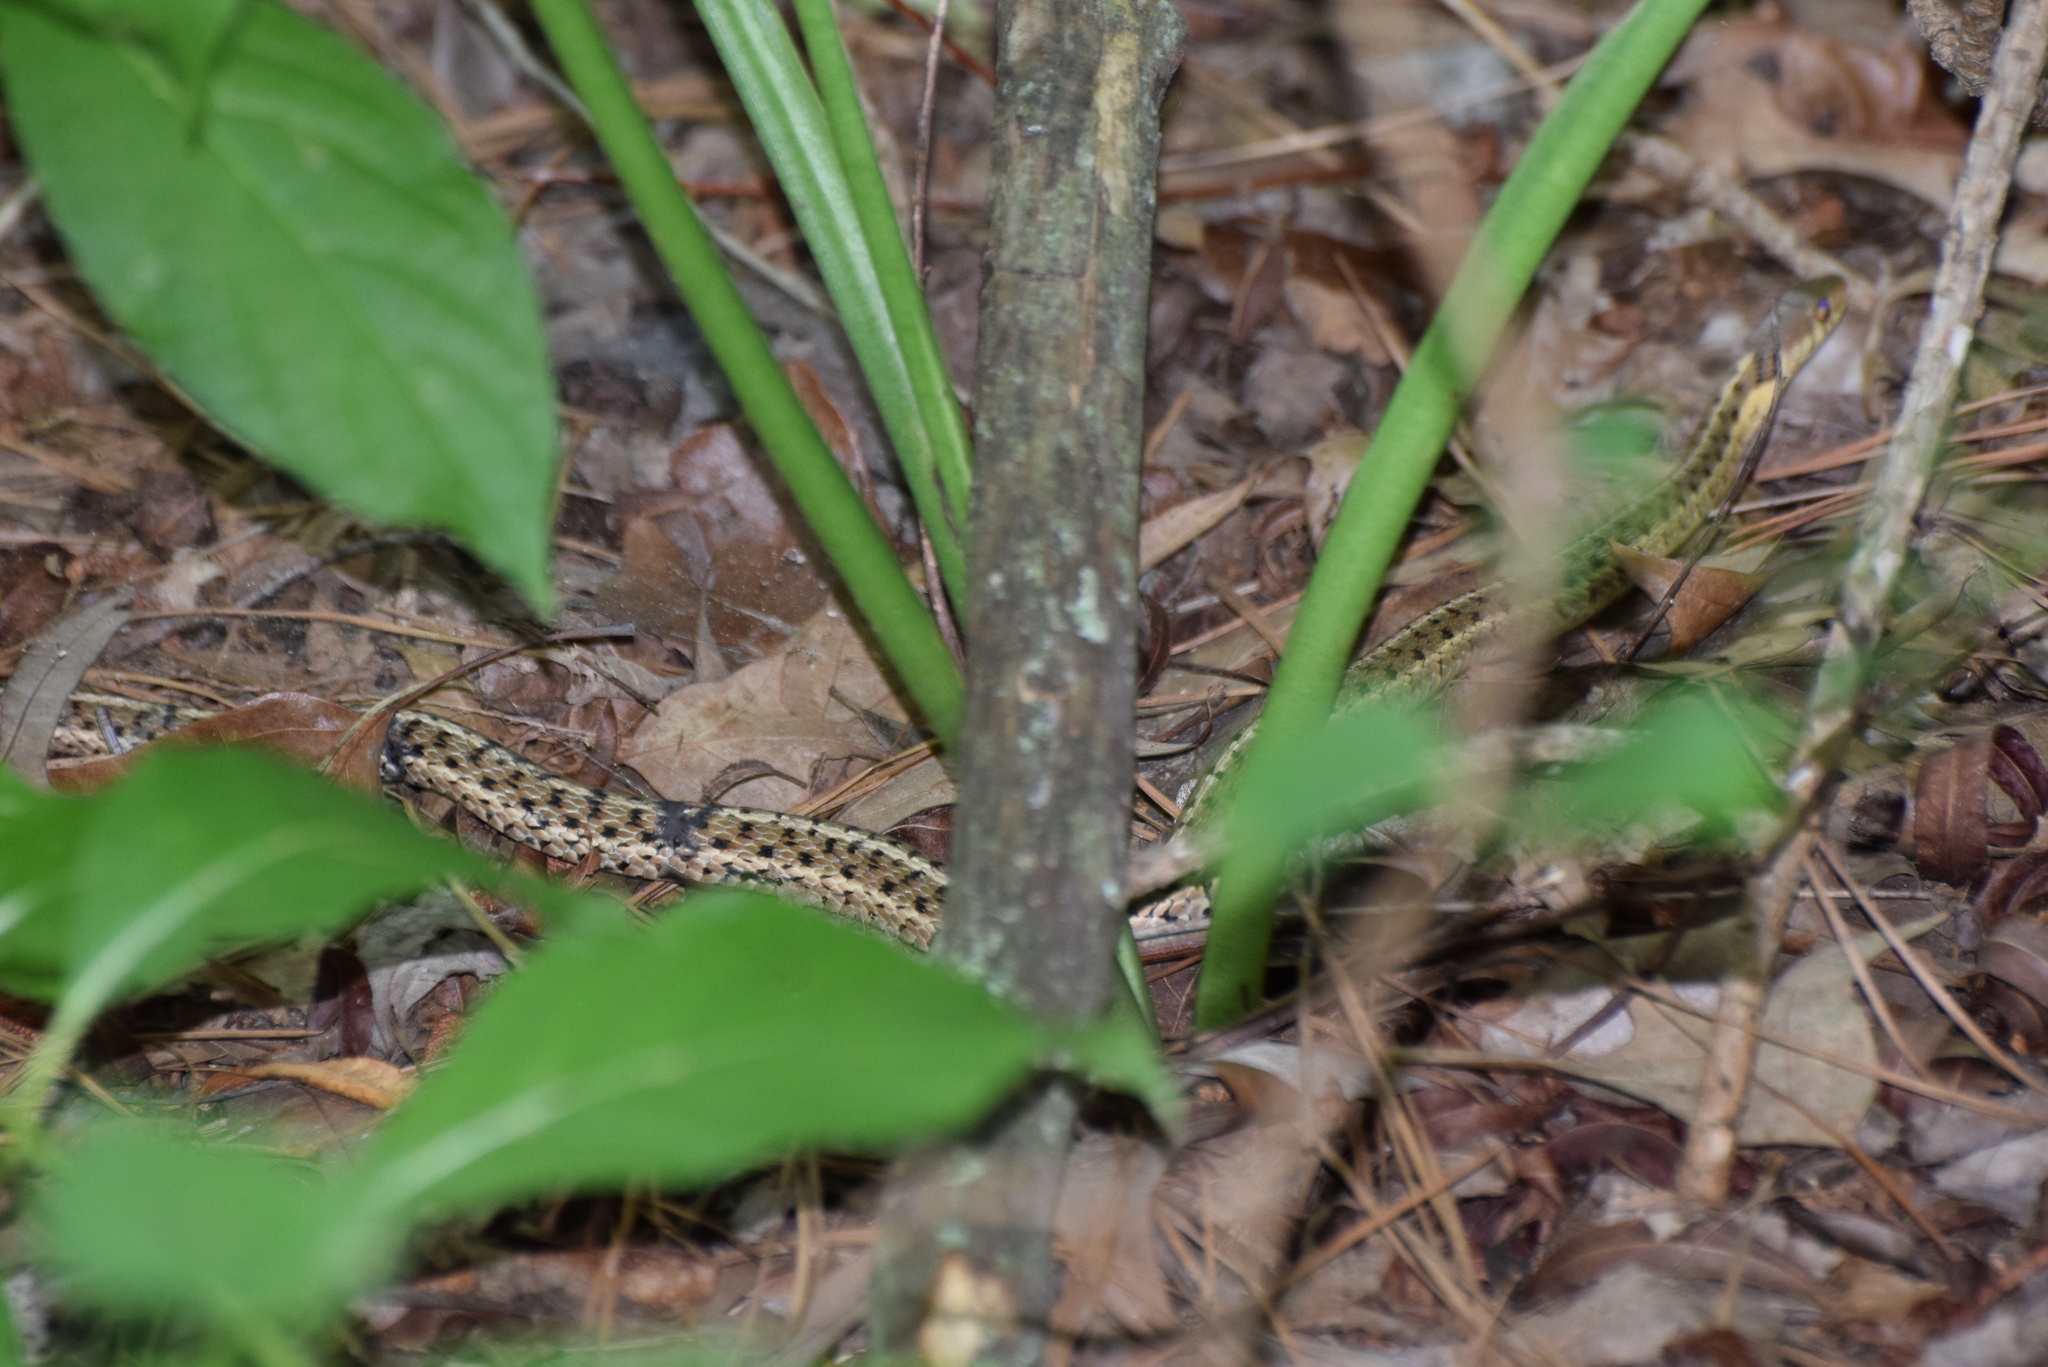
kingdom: Animalia
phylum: Chordata
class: Squamata
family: Colubridae
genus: Thamnophis
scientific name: Thamnophis sirtalis
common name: Common garter snake
